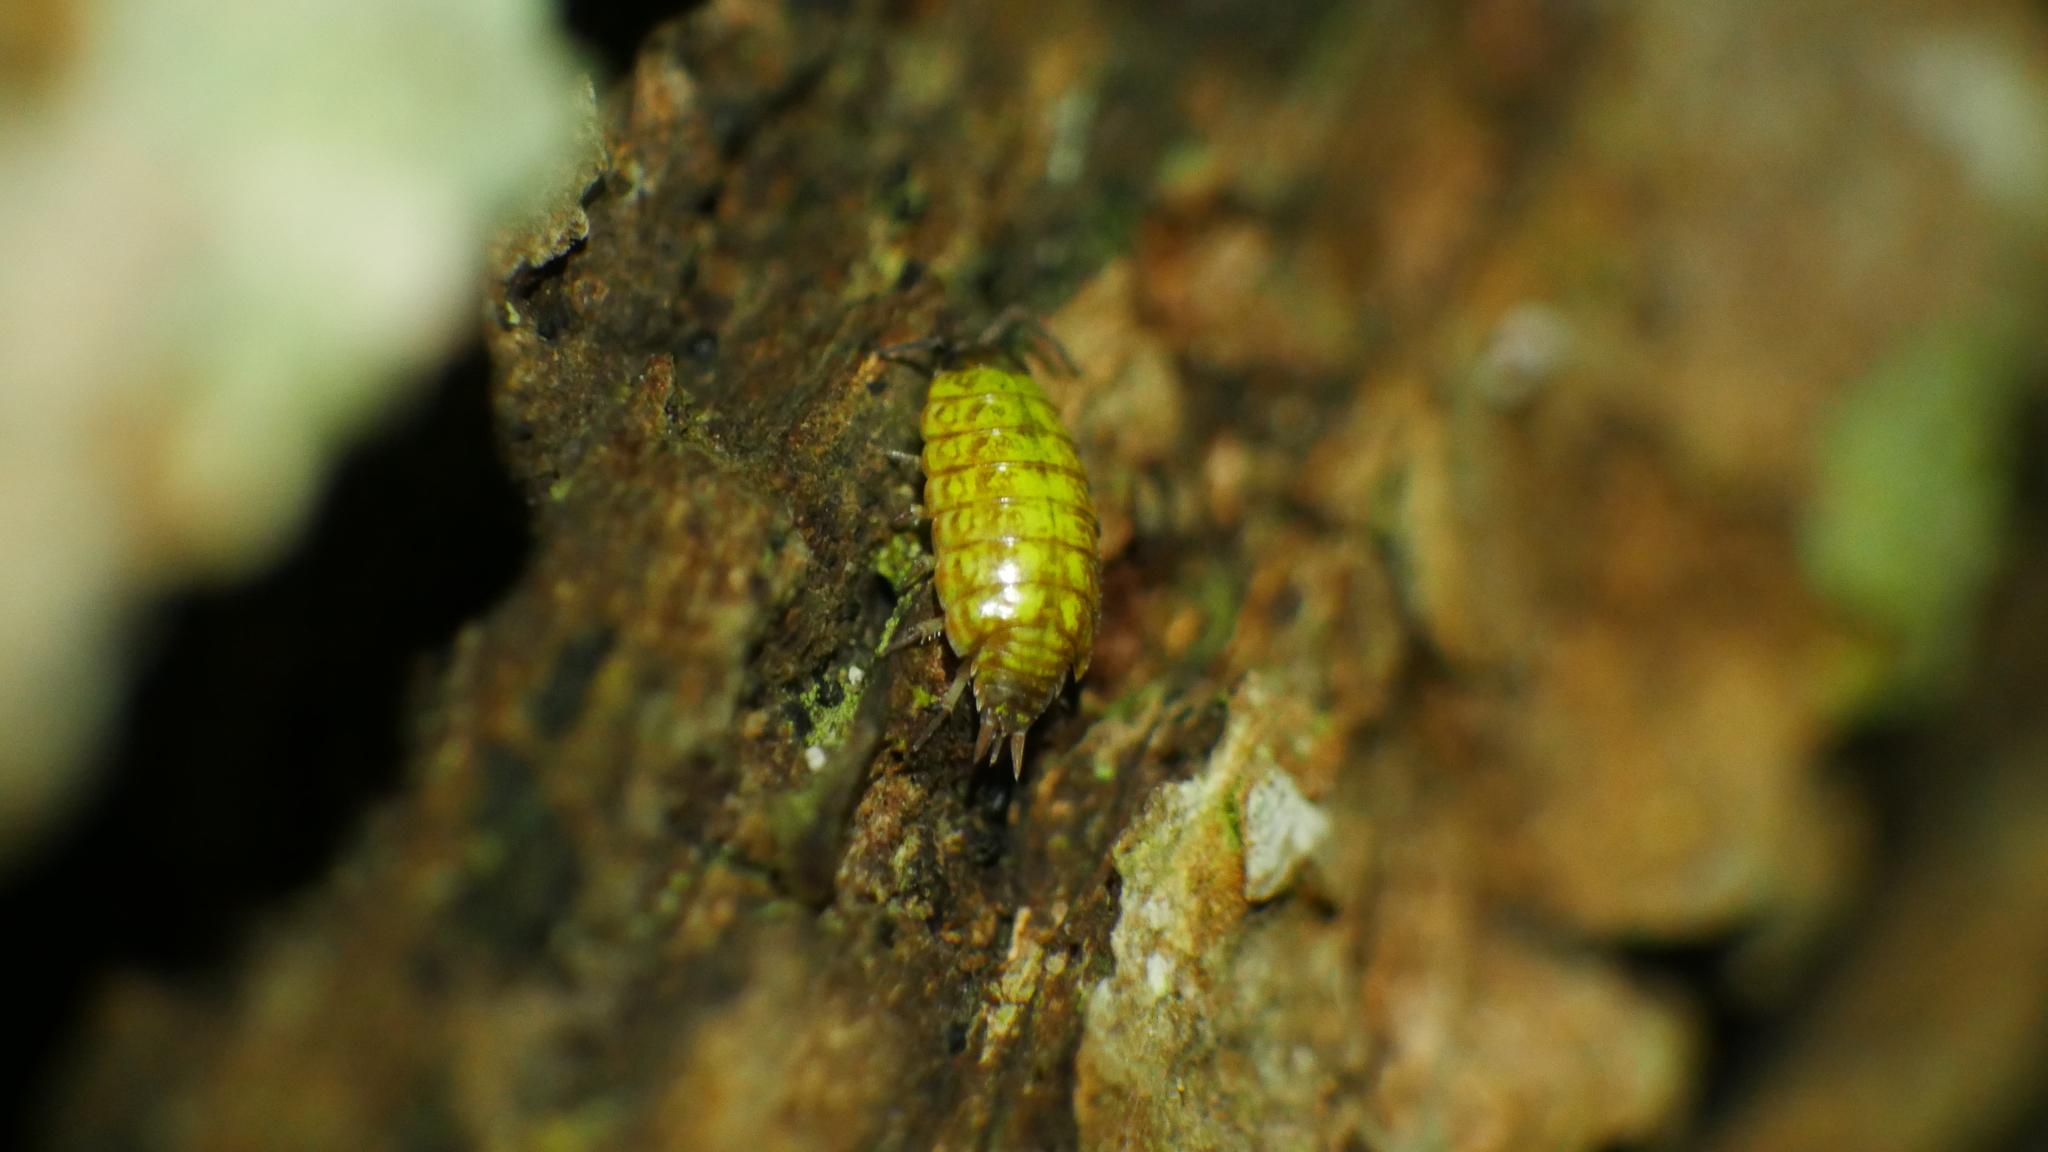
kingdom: Animalia
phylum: Arthropoda
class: Malacostraca
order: Isopoda
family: Philosciidae
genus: Philoscia
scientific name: Philoscia muscorum
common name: Common striped woodlouse
